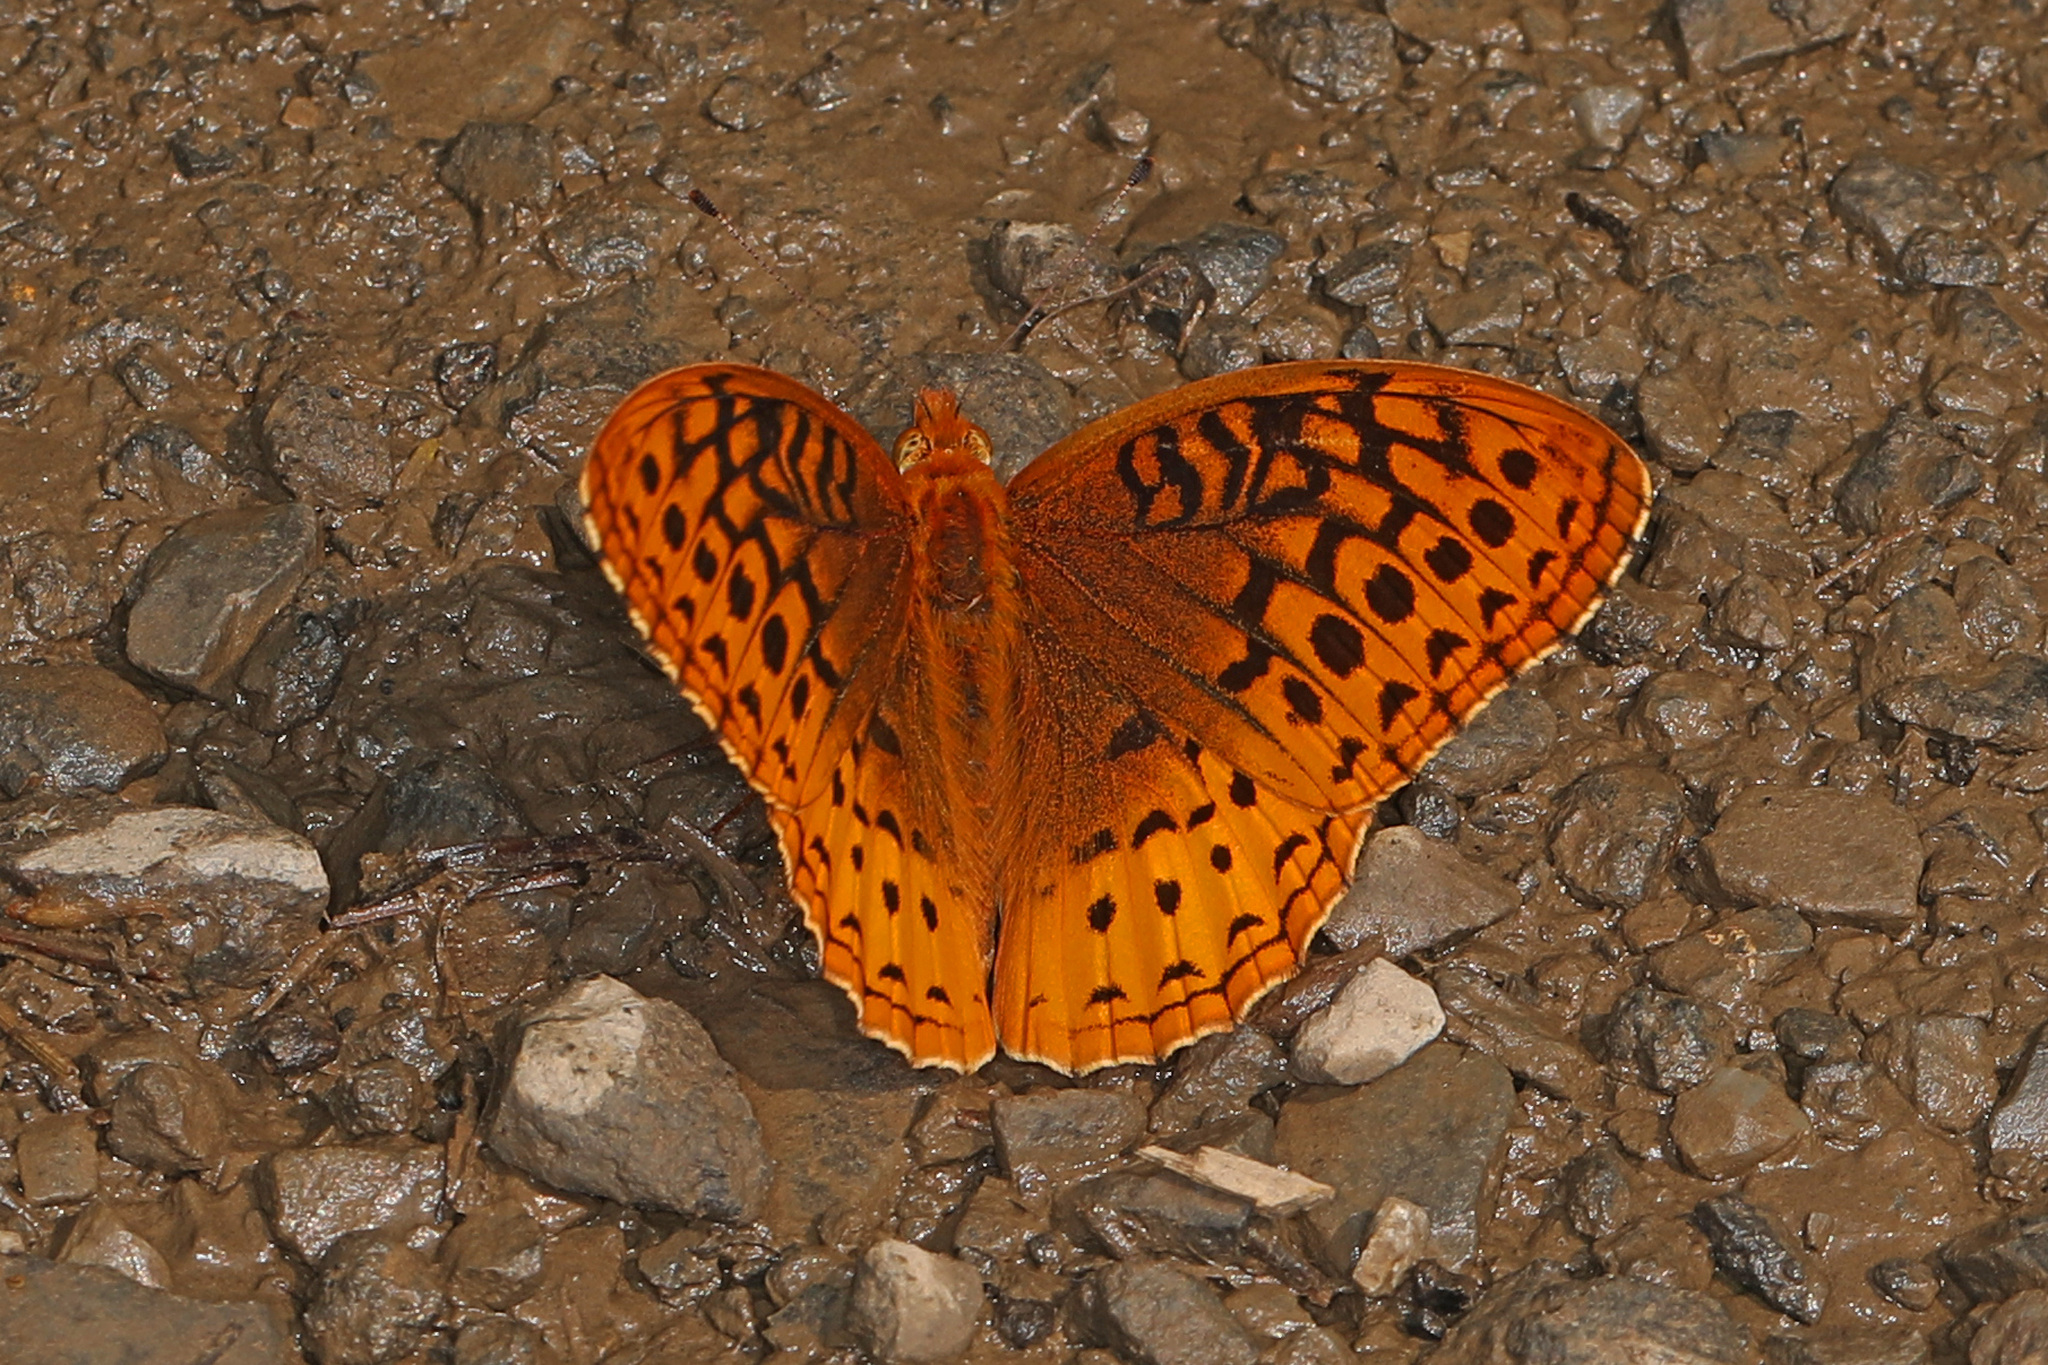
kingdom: Animalia
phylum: Arthropoda
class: Insecta
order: Lepidoptera
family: Nymphalidae
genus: Speyeria
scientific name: Speyeria cybele
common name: Great spangled fritillary
